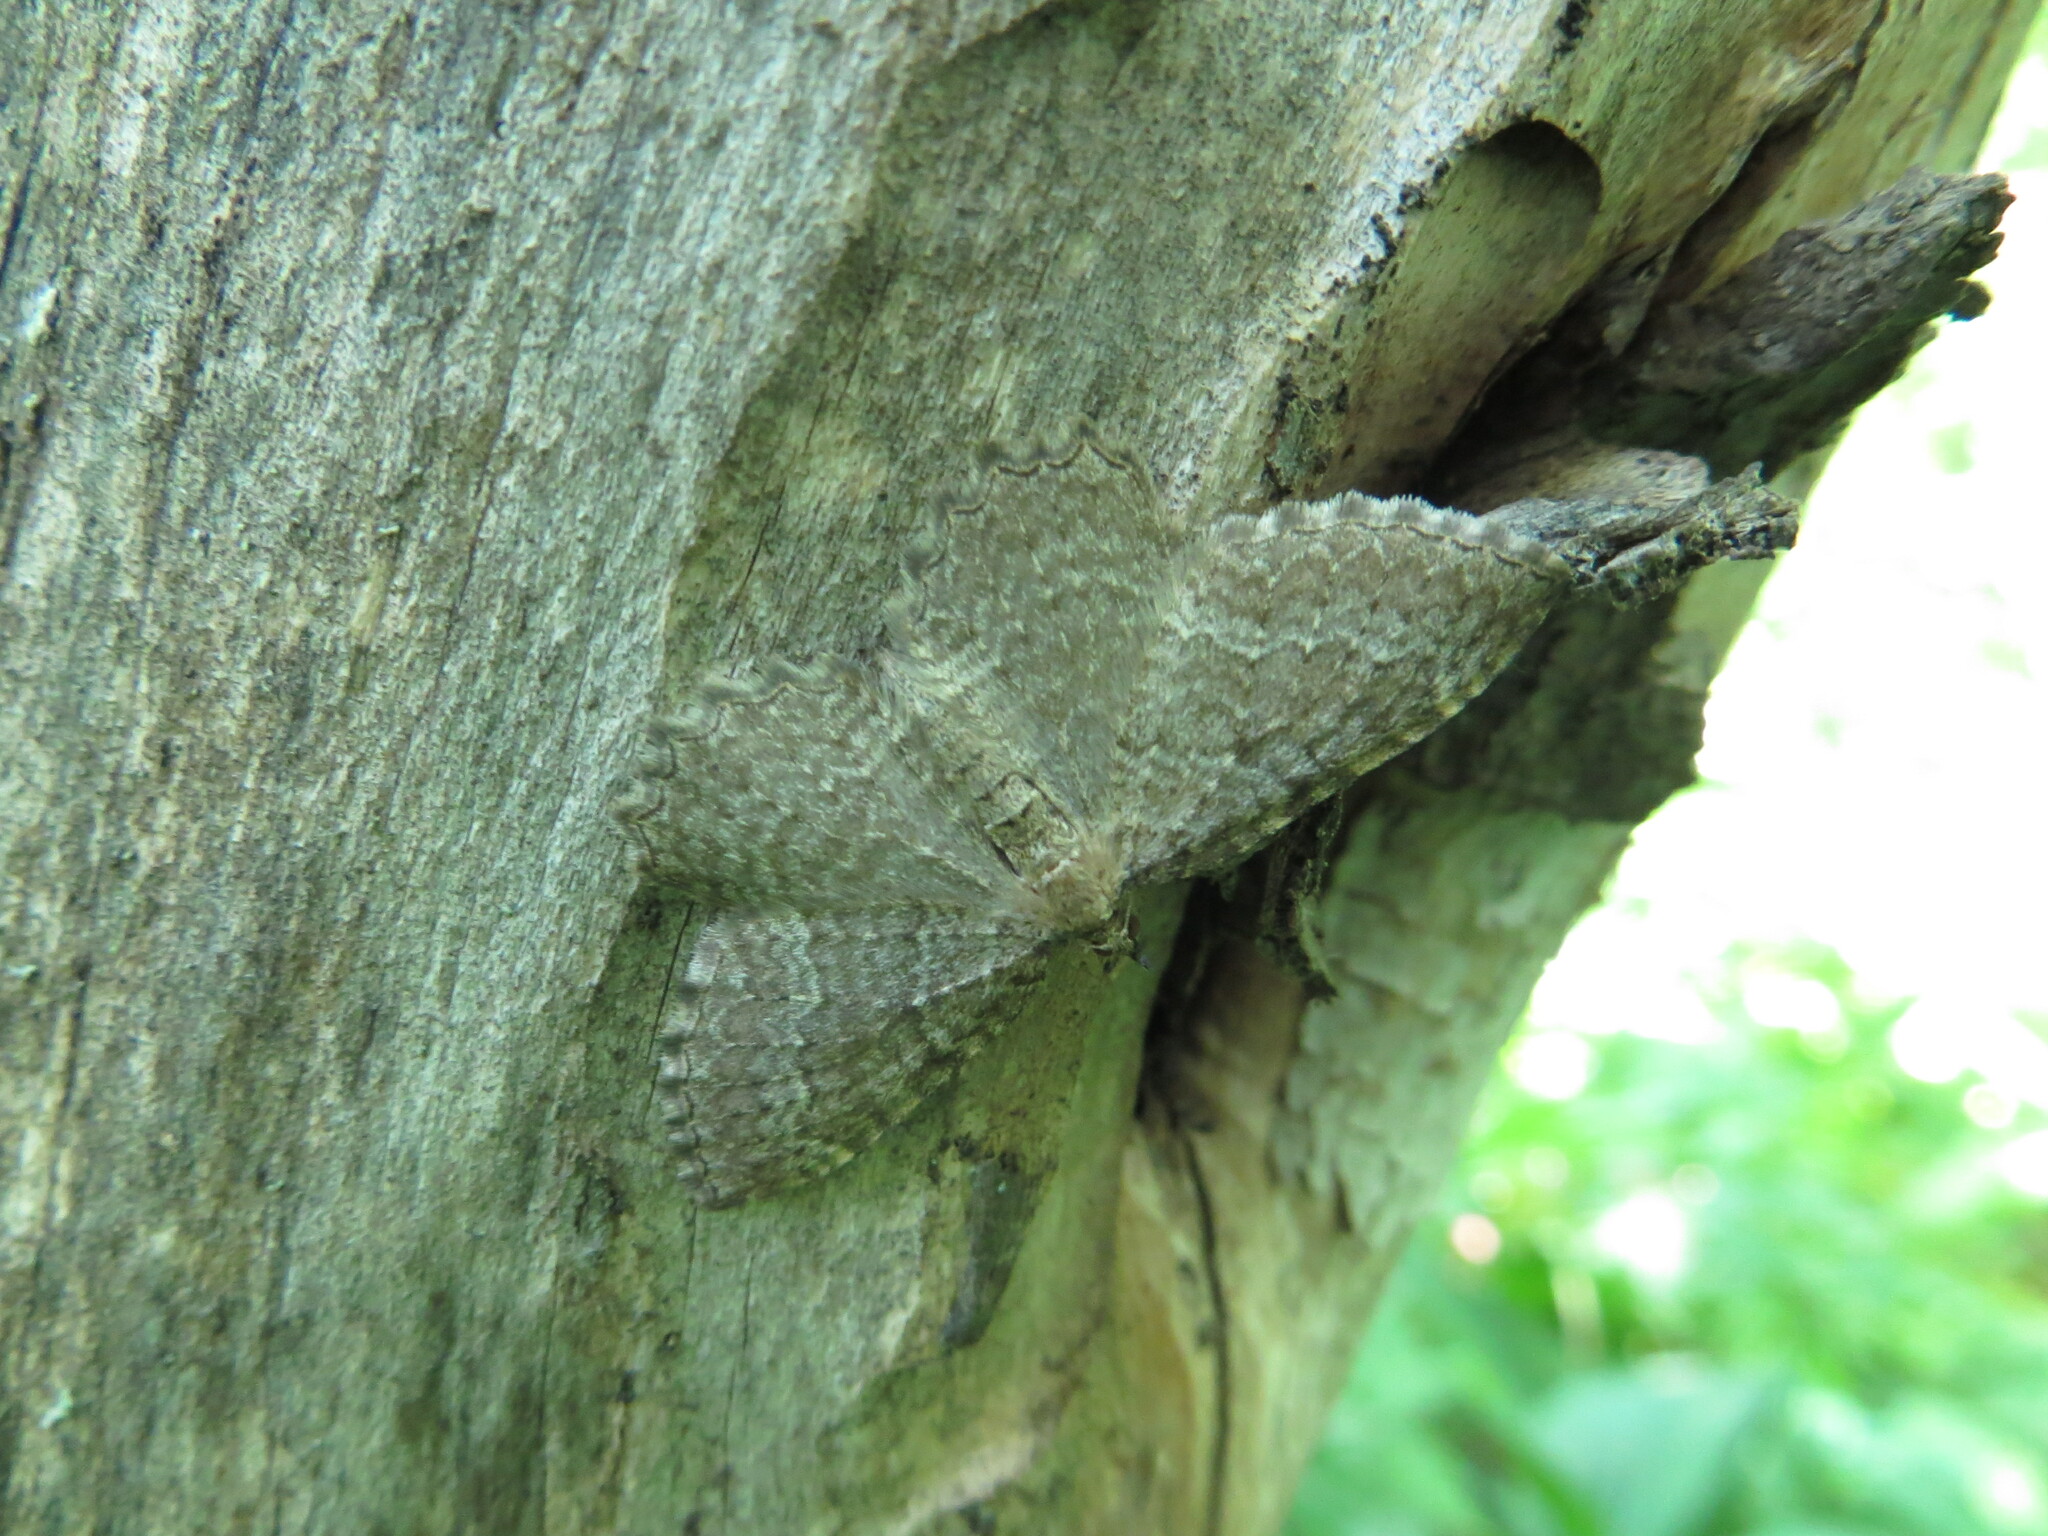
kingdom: Animalia
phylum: Arthropoda
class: Insecta
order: Lepidoptera
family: Geometridae
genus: Philereme
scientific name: Philereme vetulata
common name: Brown scallop
